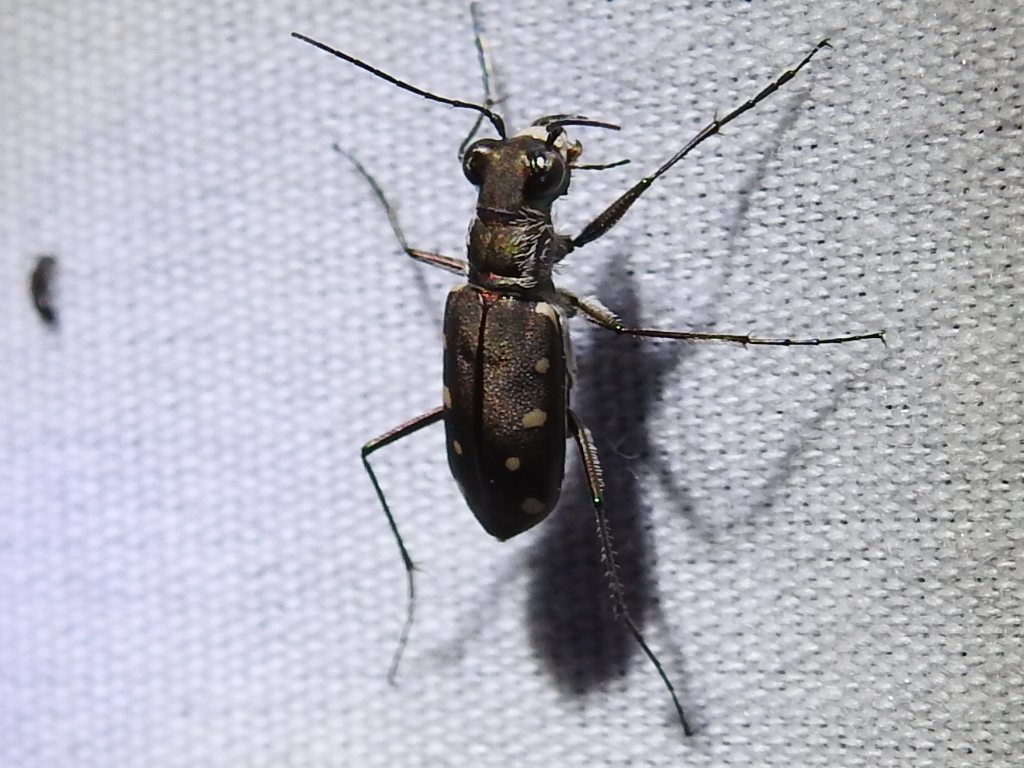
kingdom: Animalia
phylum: Arthropoda
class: Insecta
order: Coleoptera
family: Carabidae
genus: Cicindela
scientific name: Cicindela ocellata
